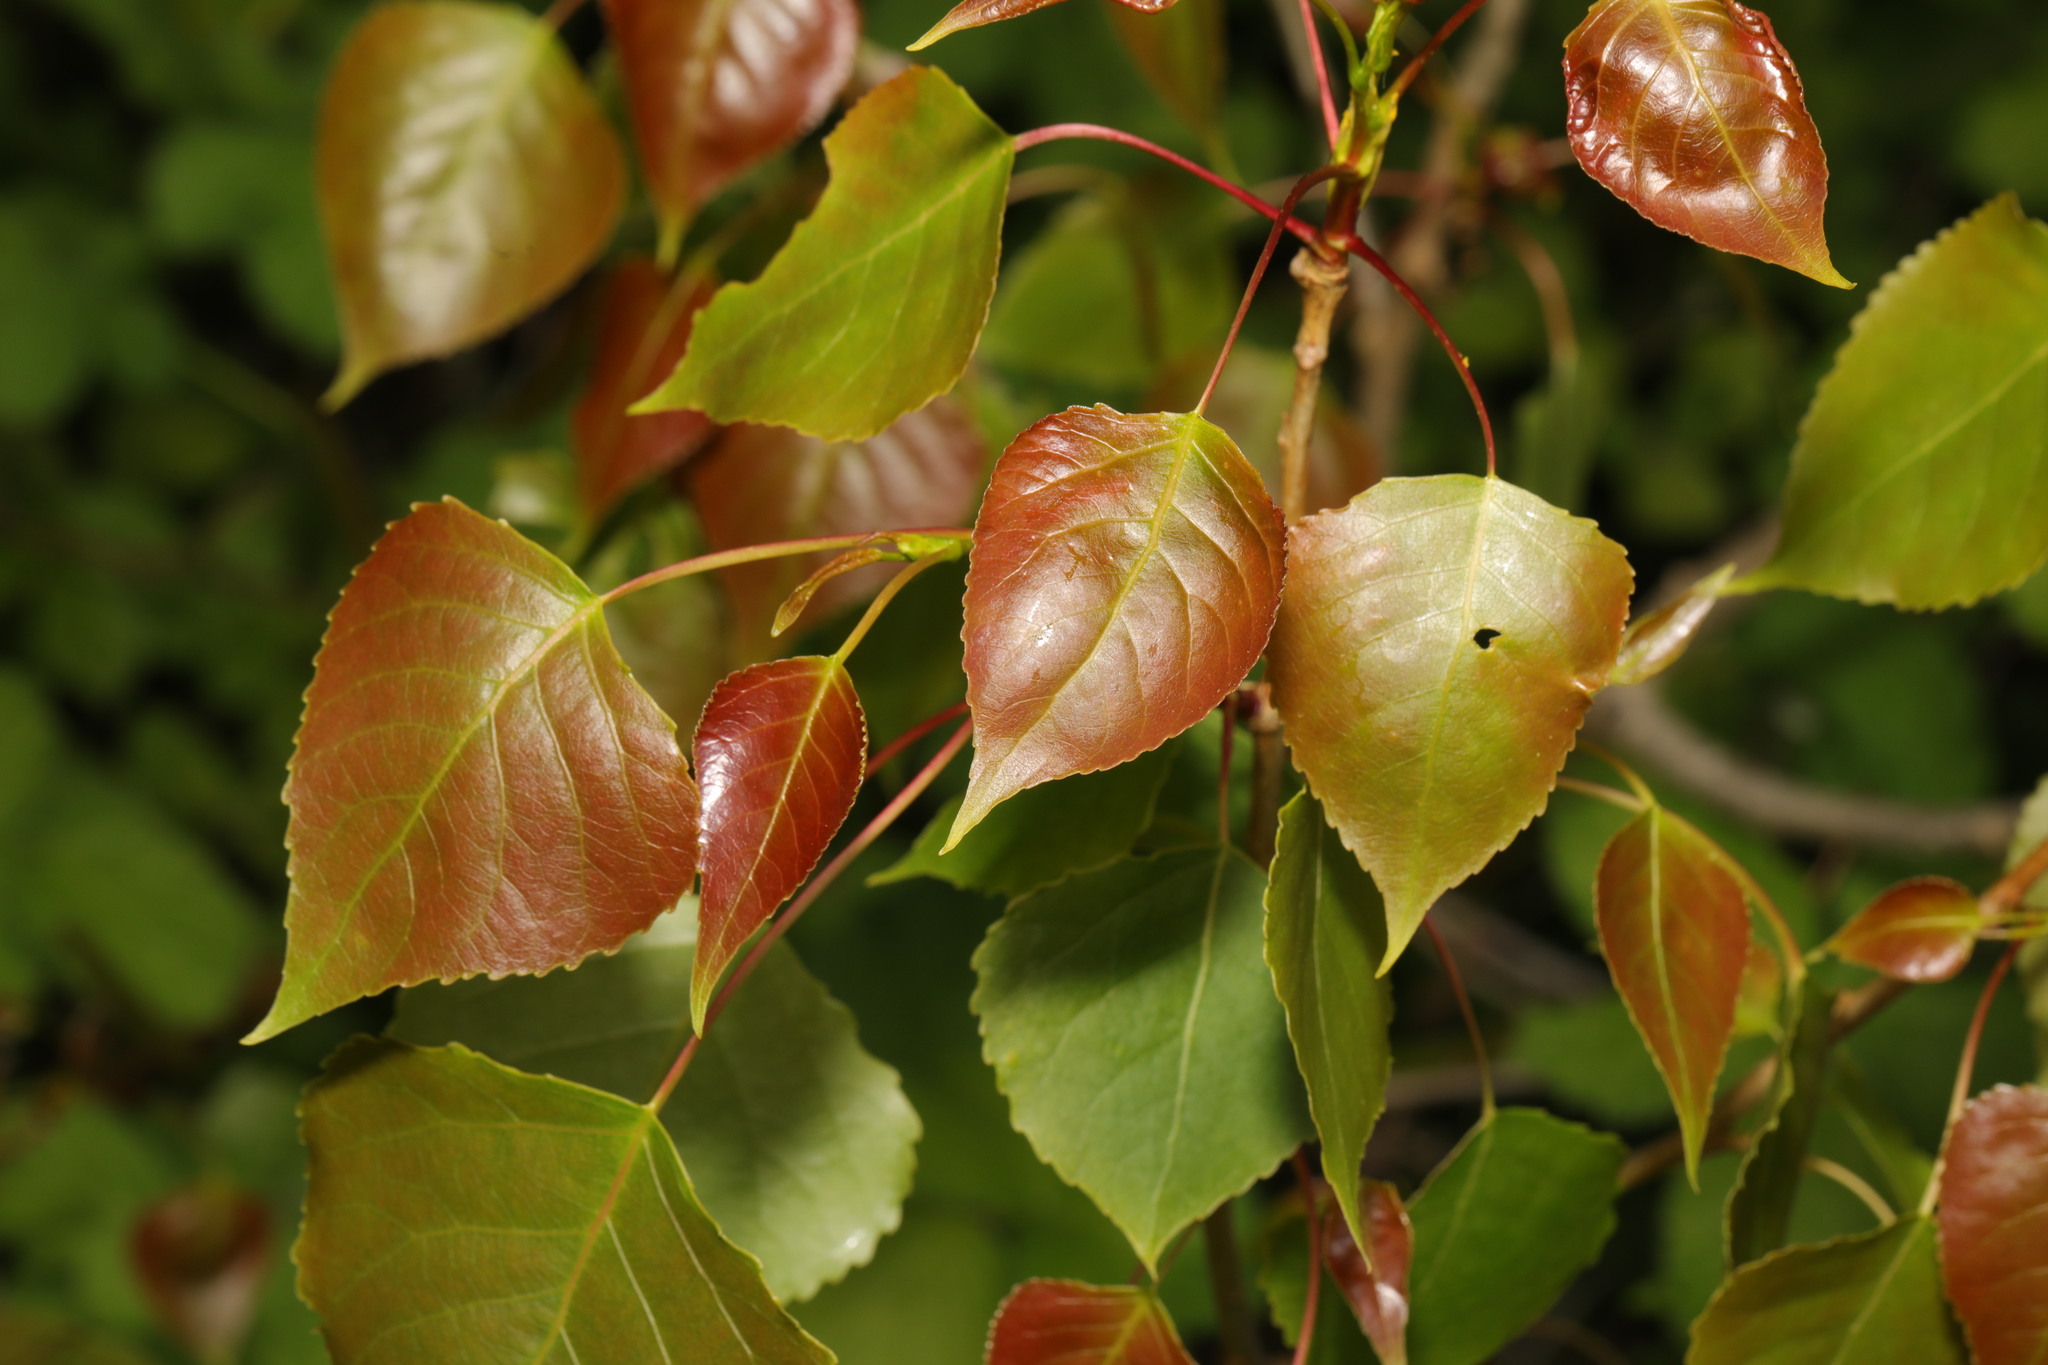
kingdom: Plantae
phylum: Tracheophyta
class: Magnoliopsida
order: Malpighiales
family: Salicaceae
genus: Populus
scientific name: Populus nigra
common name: Black poplar
